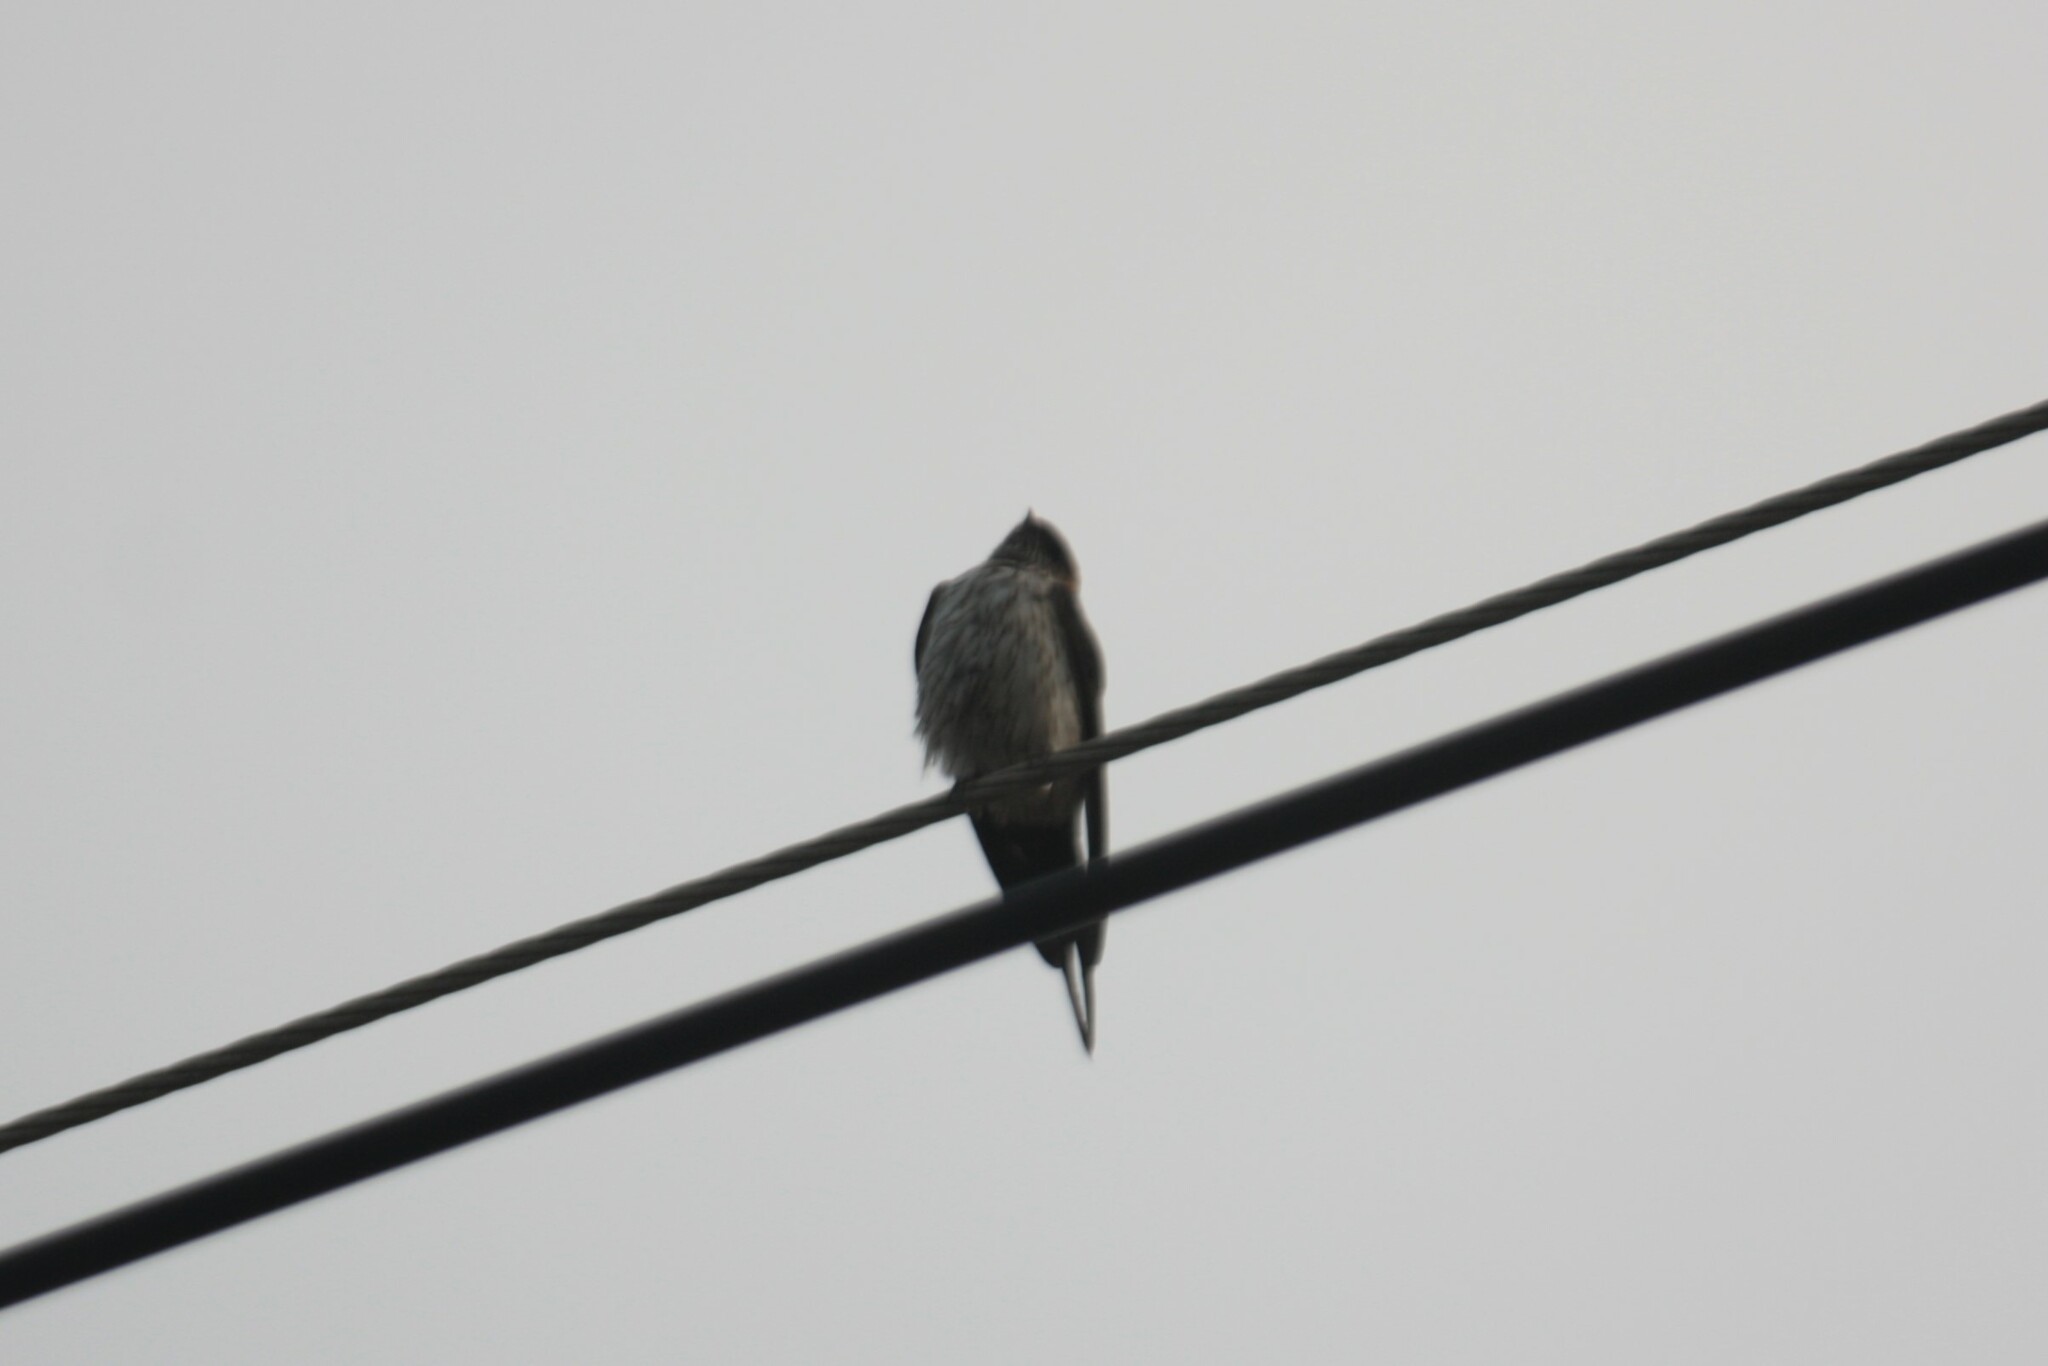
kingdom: Animalia
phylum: Chordata
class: Aves
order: Passeriformes
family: Hirundinidae
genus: Cecropis
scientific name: Cecropis striolata
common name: Striated swallow
